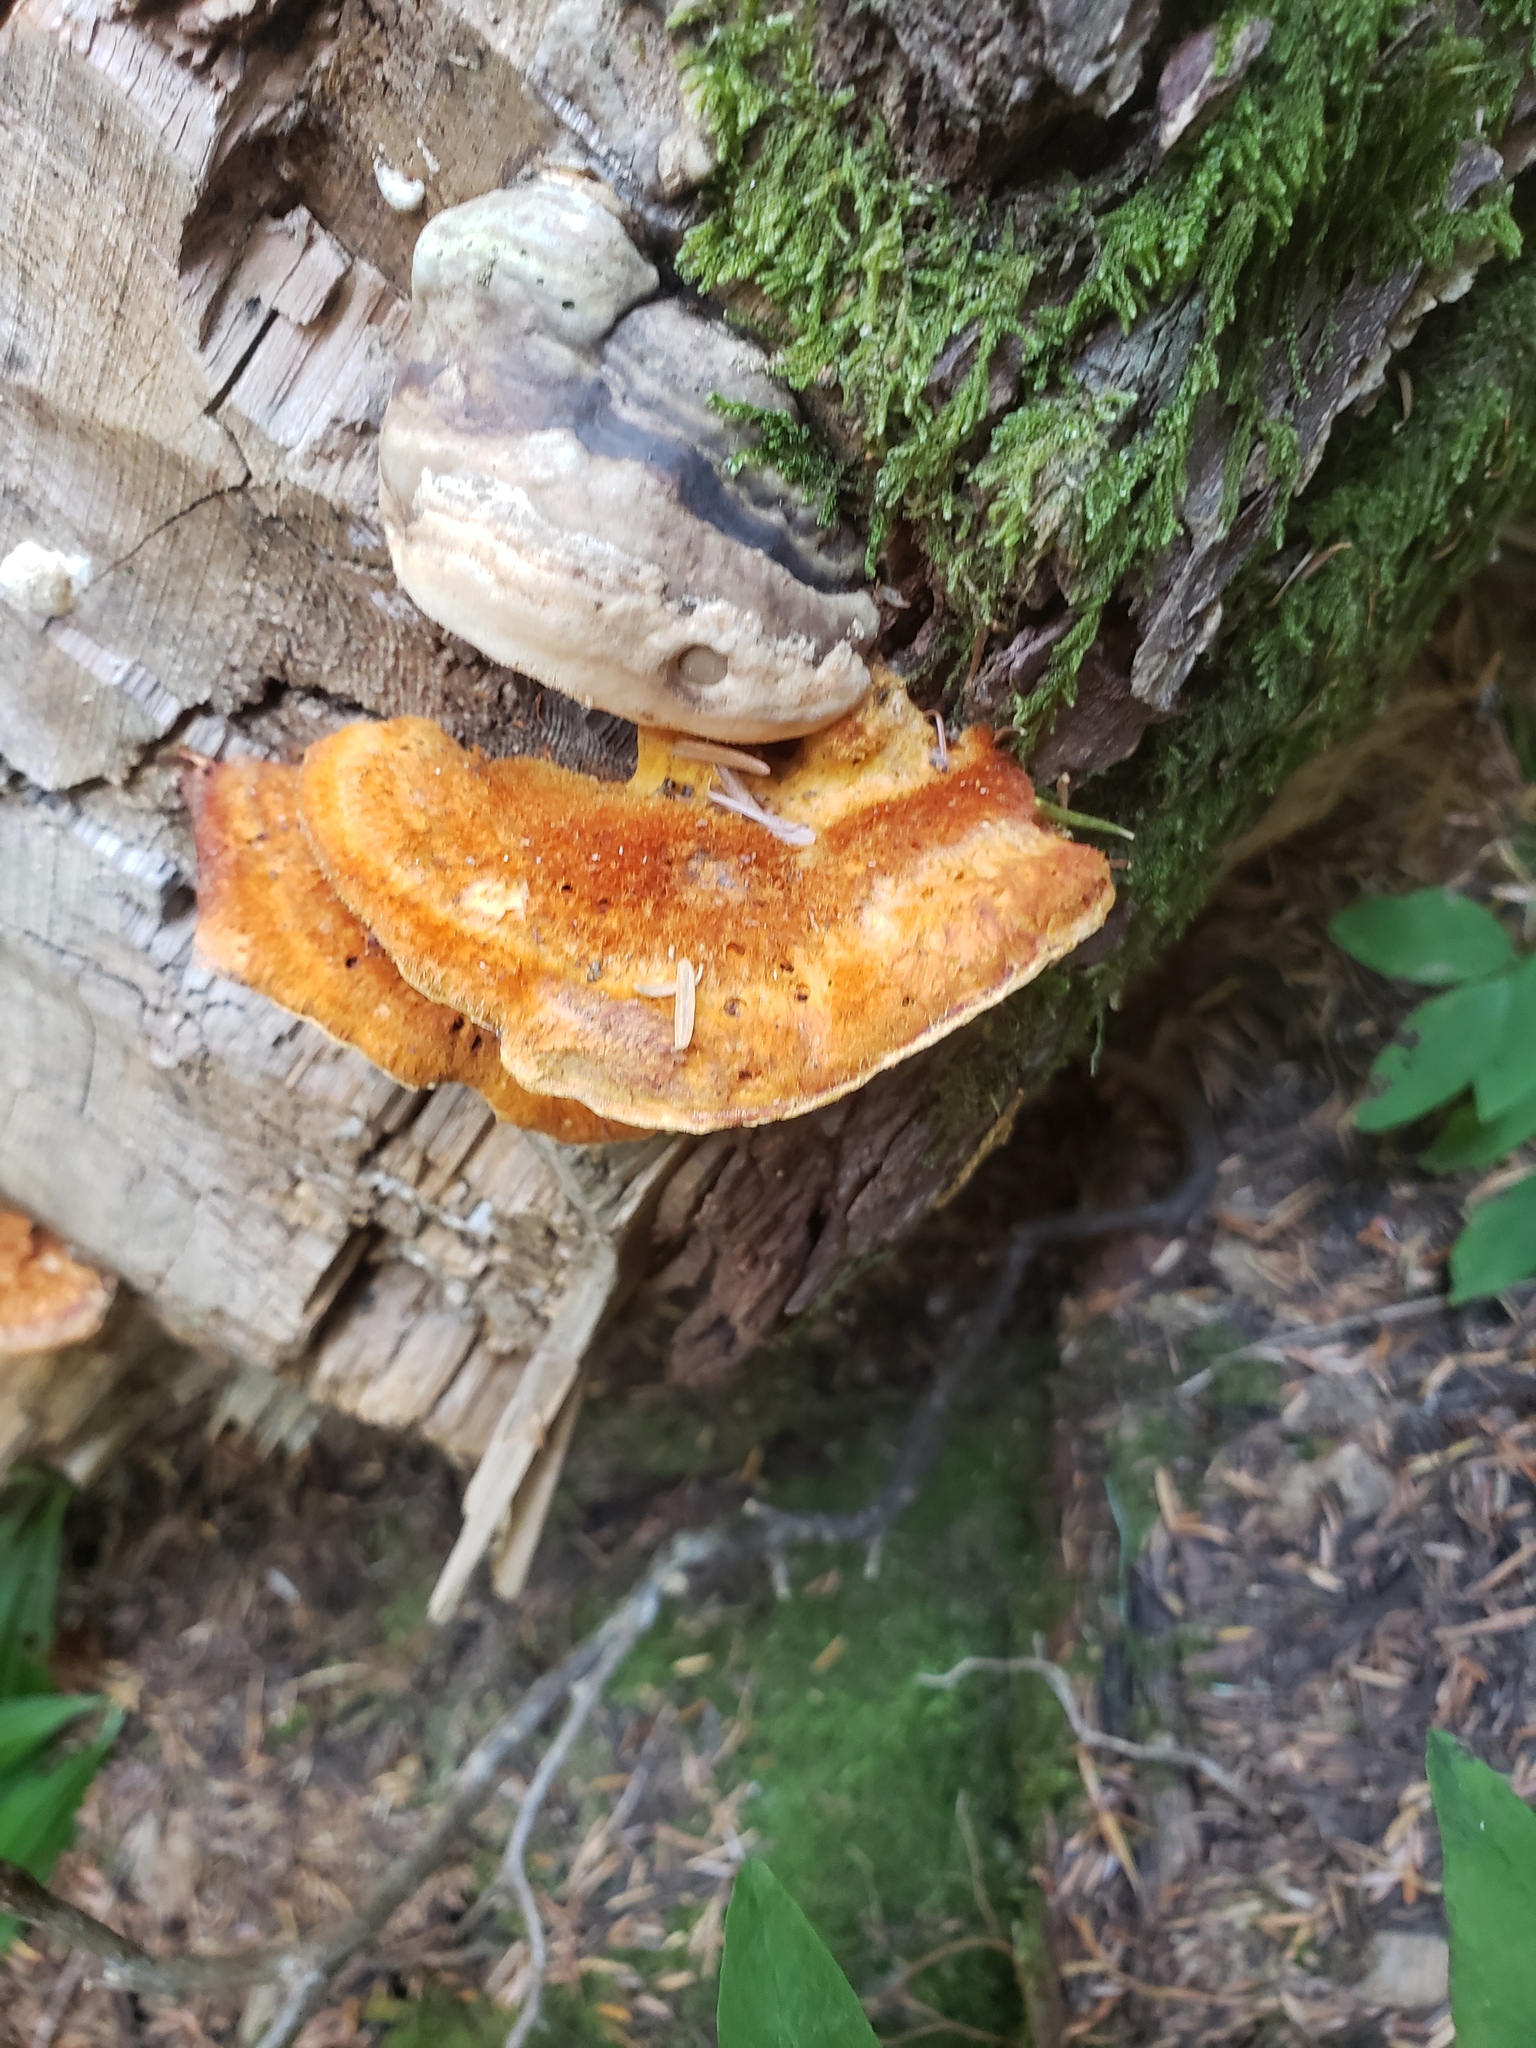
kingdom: Fungi
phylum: Basidiomycota
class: Agaricomycetes
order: Polyporales
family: Pycnoporellaceae
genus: Pycnoporellus
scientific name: Pycnoporellus fulgens
